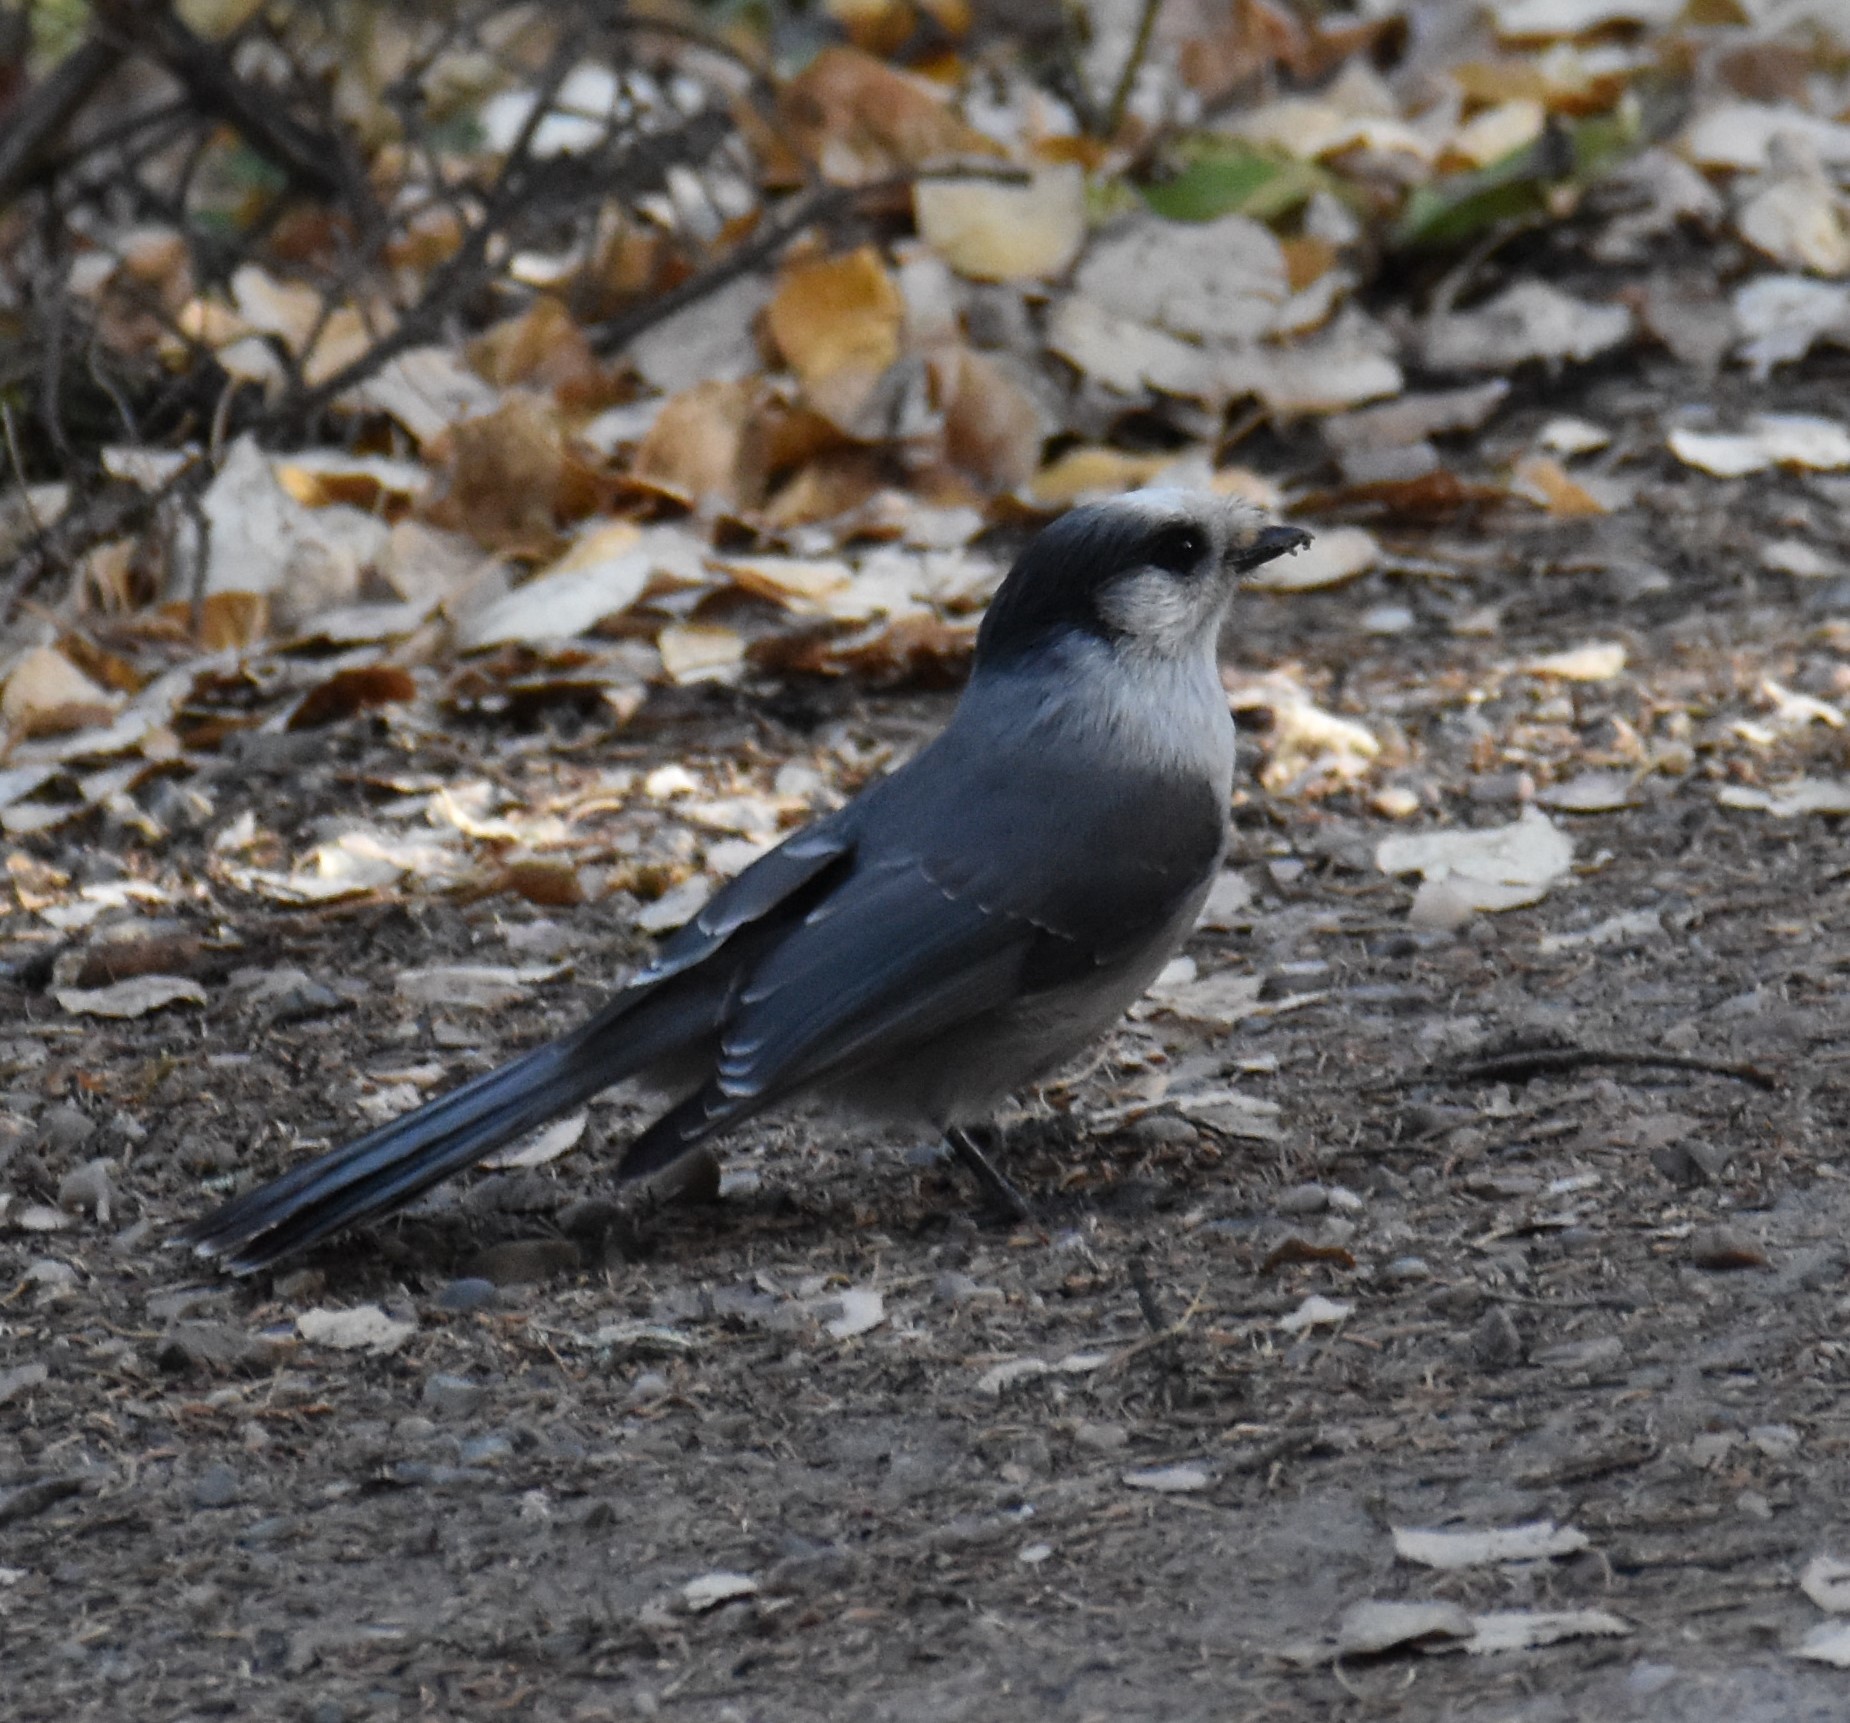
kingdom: Animalia
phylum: Chordata
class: Aves
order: Passeriformes
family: Corvidae
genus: Perisoreus
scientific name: Perisoreus canadensis
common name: Gray jay
